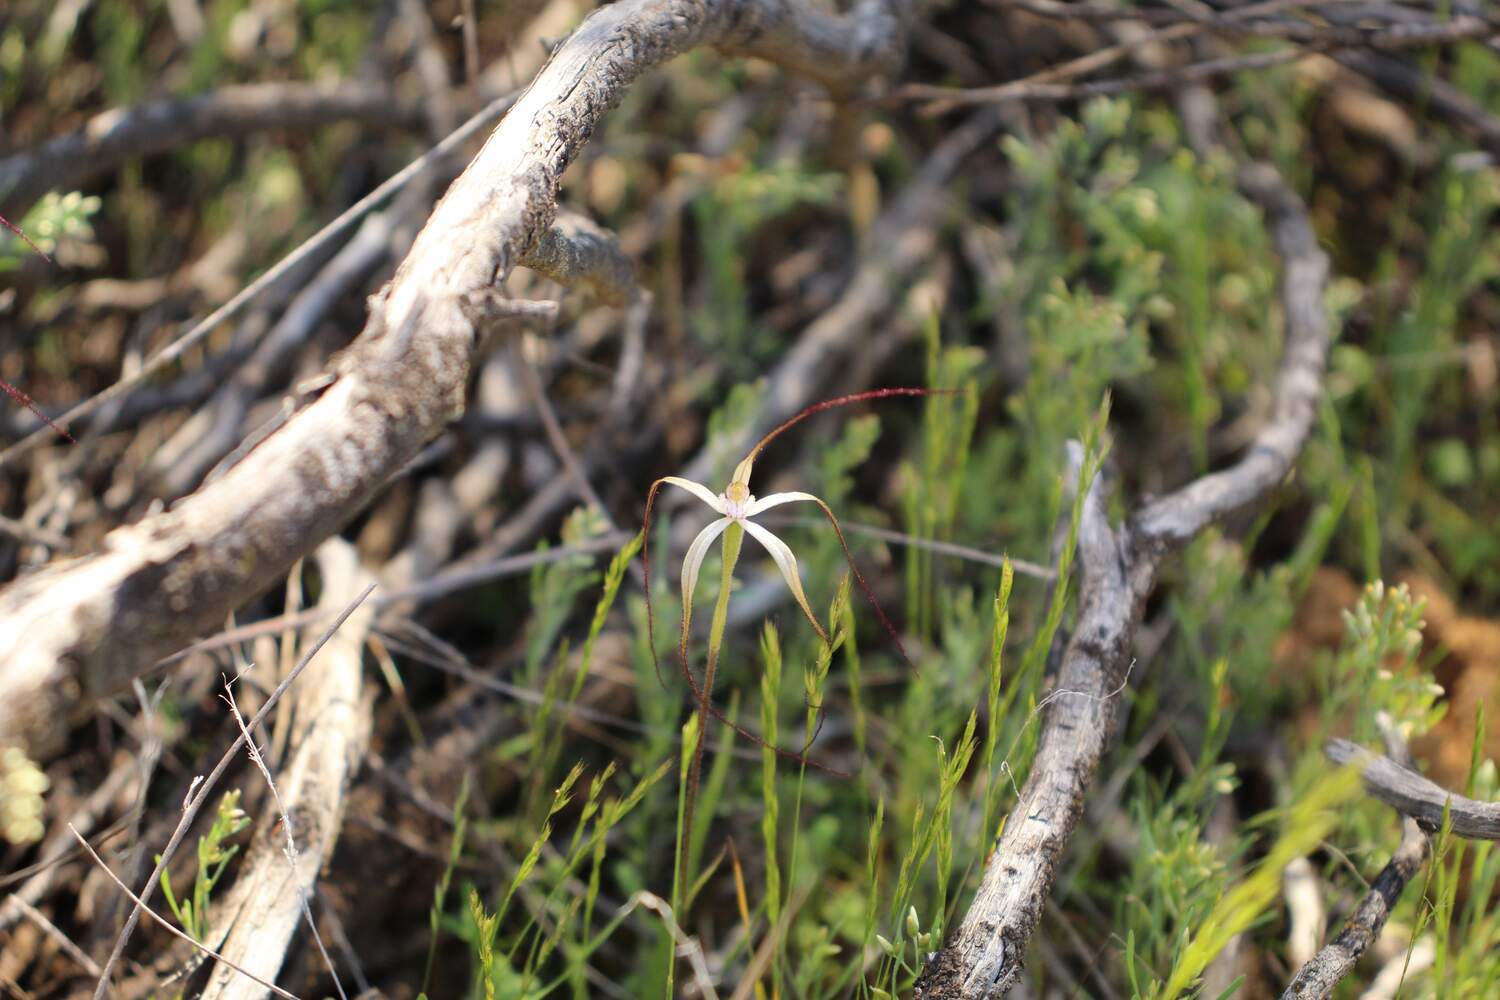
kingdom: Plantae
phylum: Tracheophyta
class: Liliopsida
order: Asparagales
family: Orchidaceae
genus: Caladenia
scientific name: Caladenia microchila
